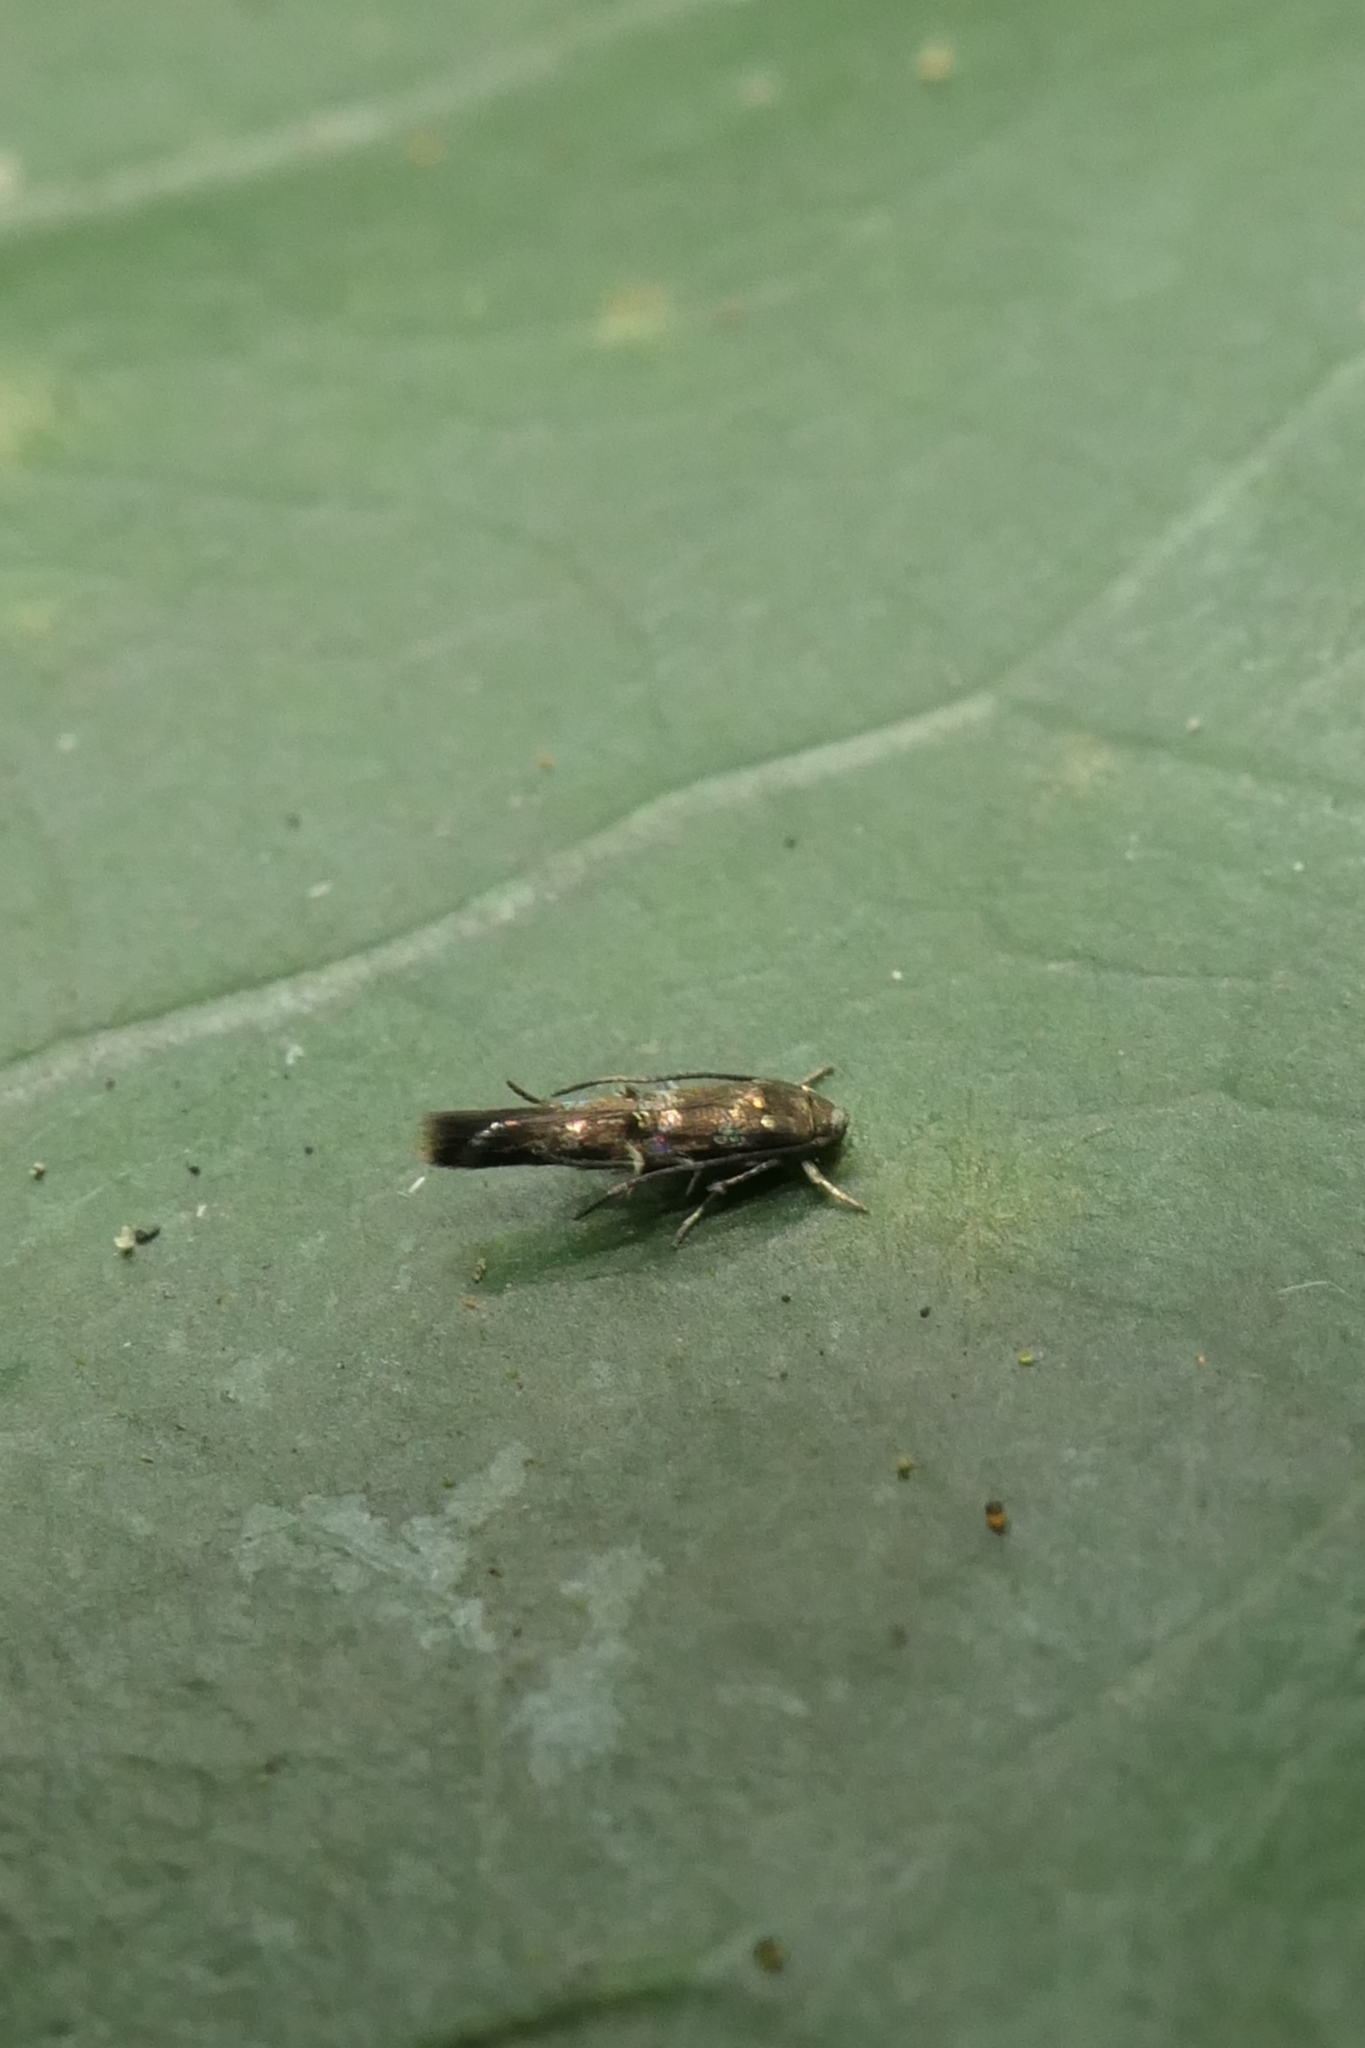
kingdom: Animalia
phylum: Arthropoda
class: Insecta
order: Lepidoptera
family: Momphidae
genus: Zapyrastra
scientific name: Zapyrastra calliphana
